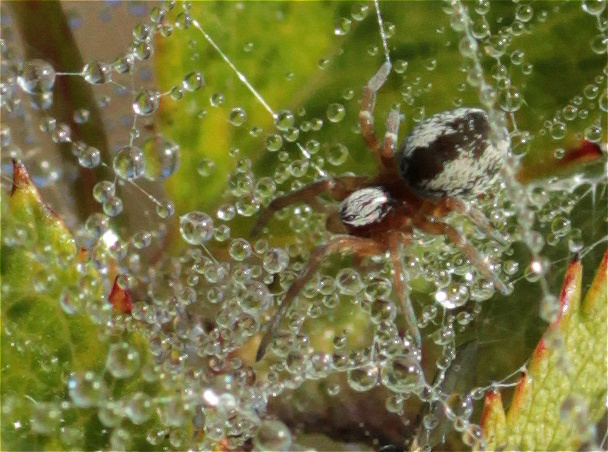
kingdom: Animalia
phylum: Arthropoda
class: Arachnida
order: Araneae
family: Dictynidae
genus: Dictyna
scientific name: Dictyna arundinacea
